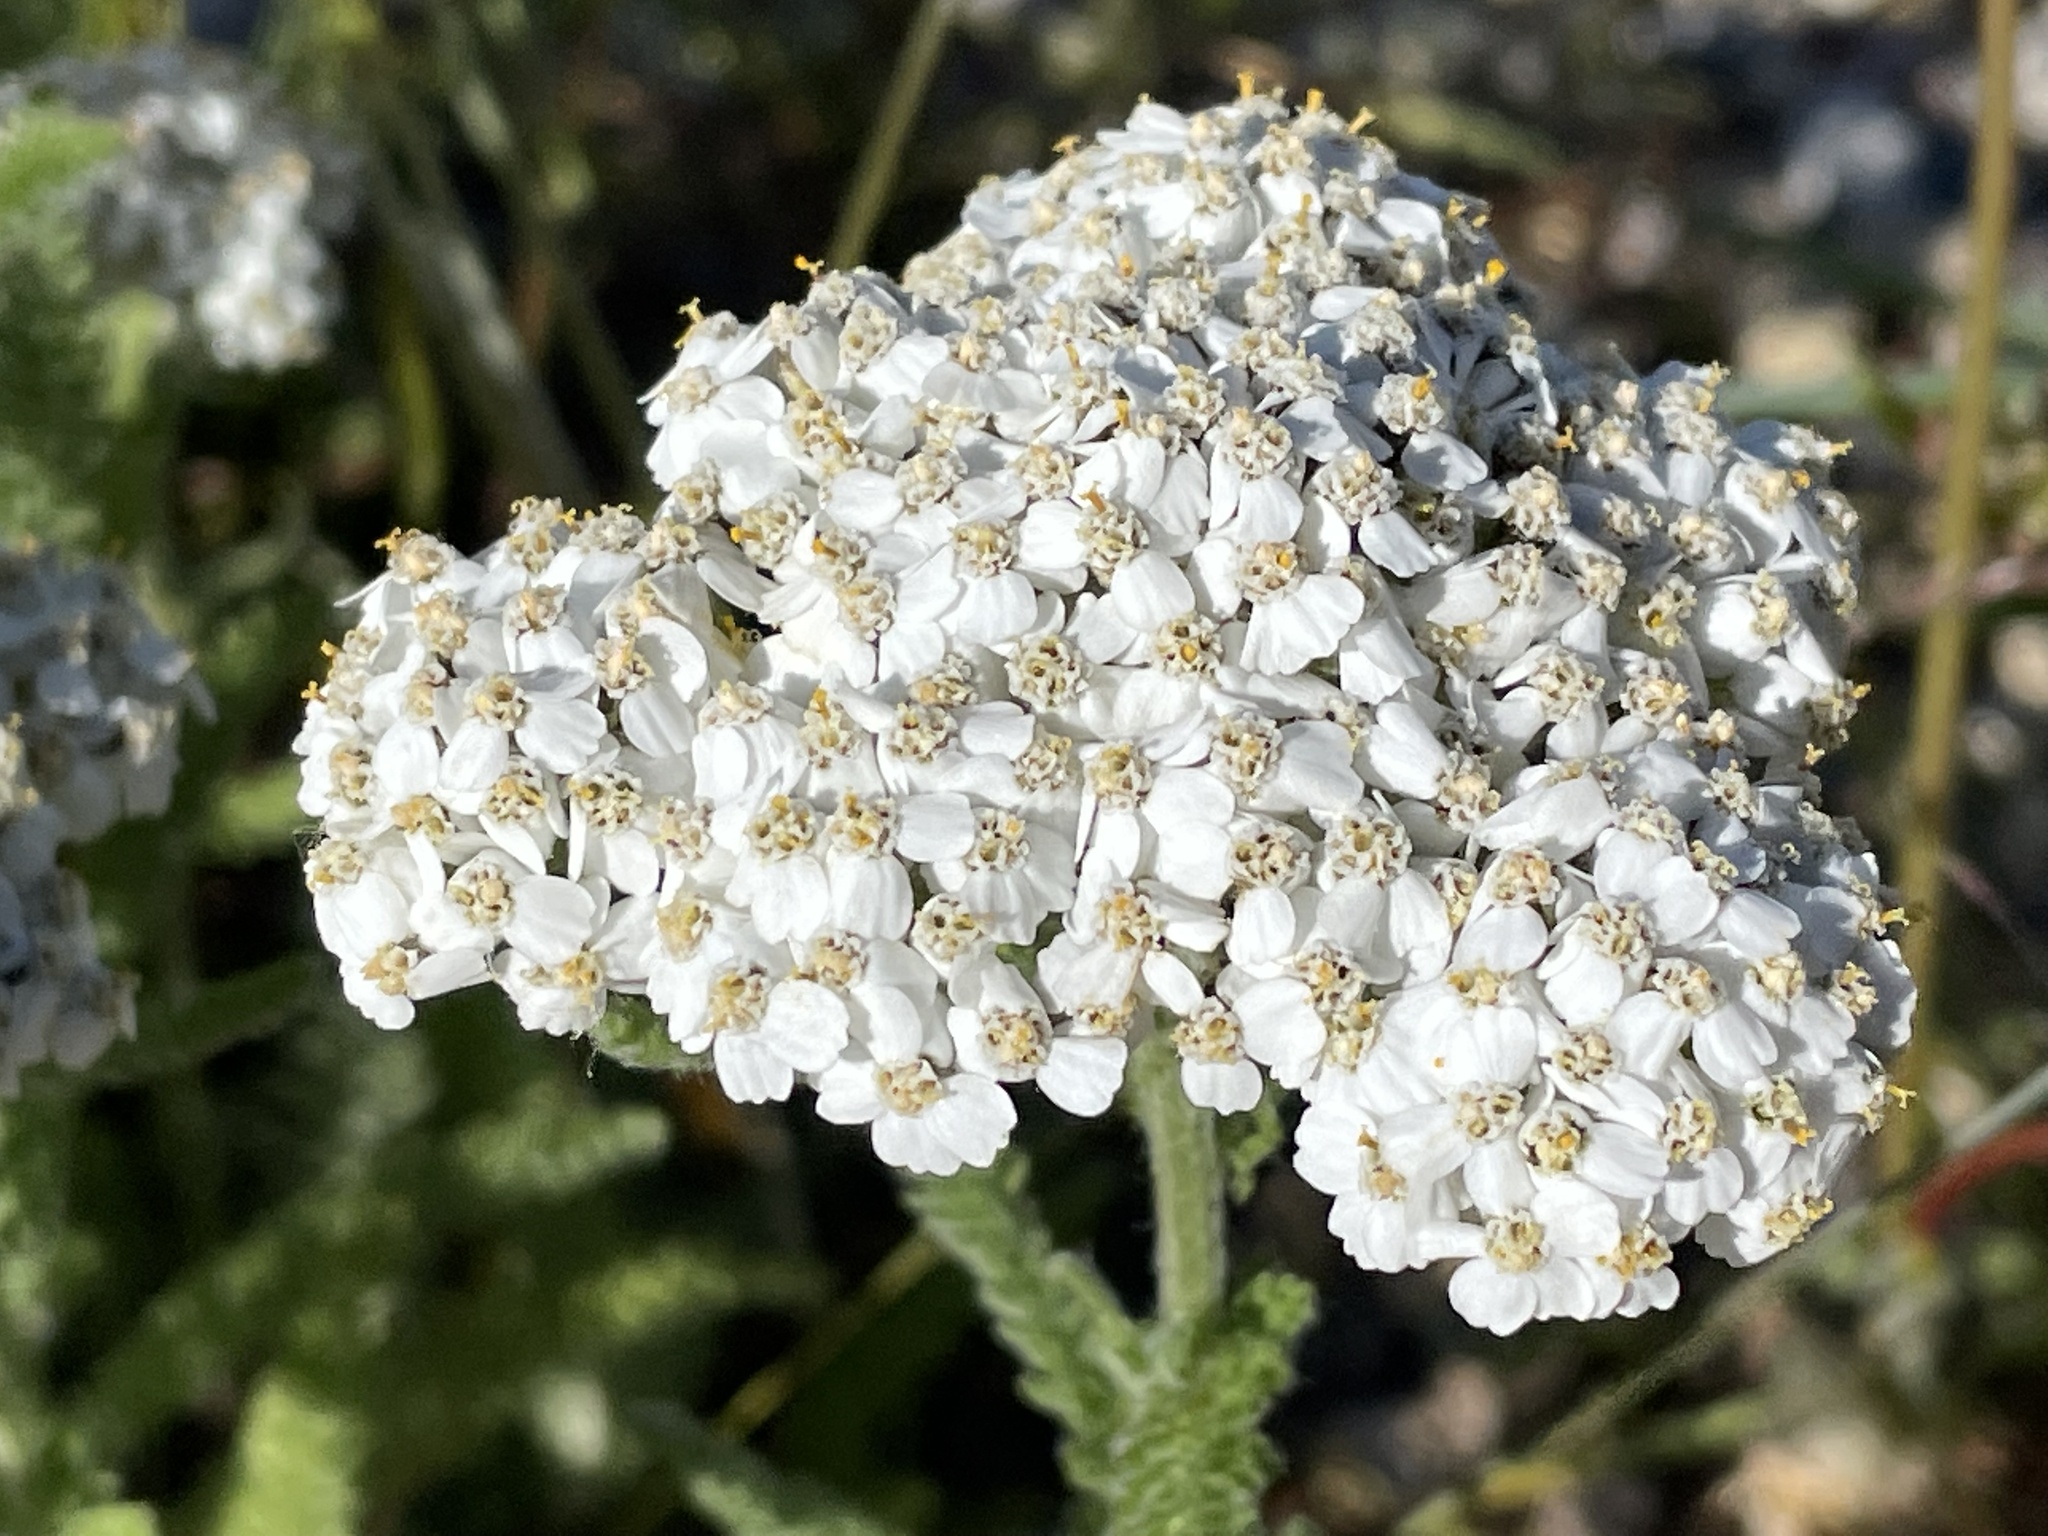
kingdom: Plantae
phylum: Tracheophyta
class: Magnoliopsida
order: Asterales
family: Asteraceae
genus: Achillea
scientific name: Achillea millefolium
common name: Yarrow
